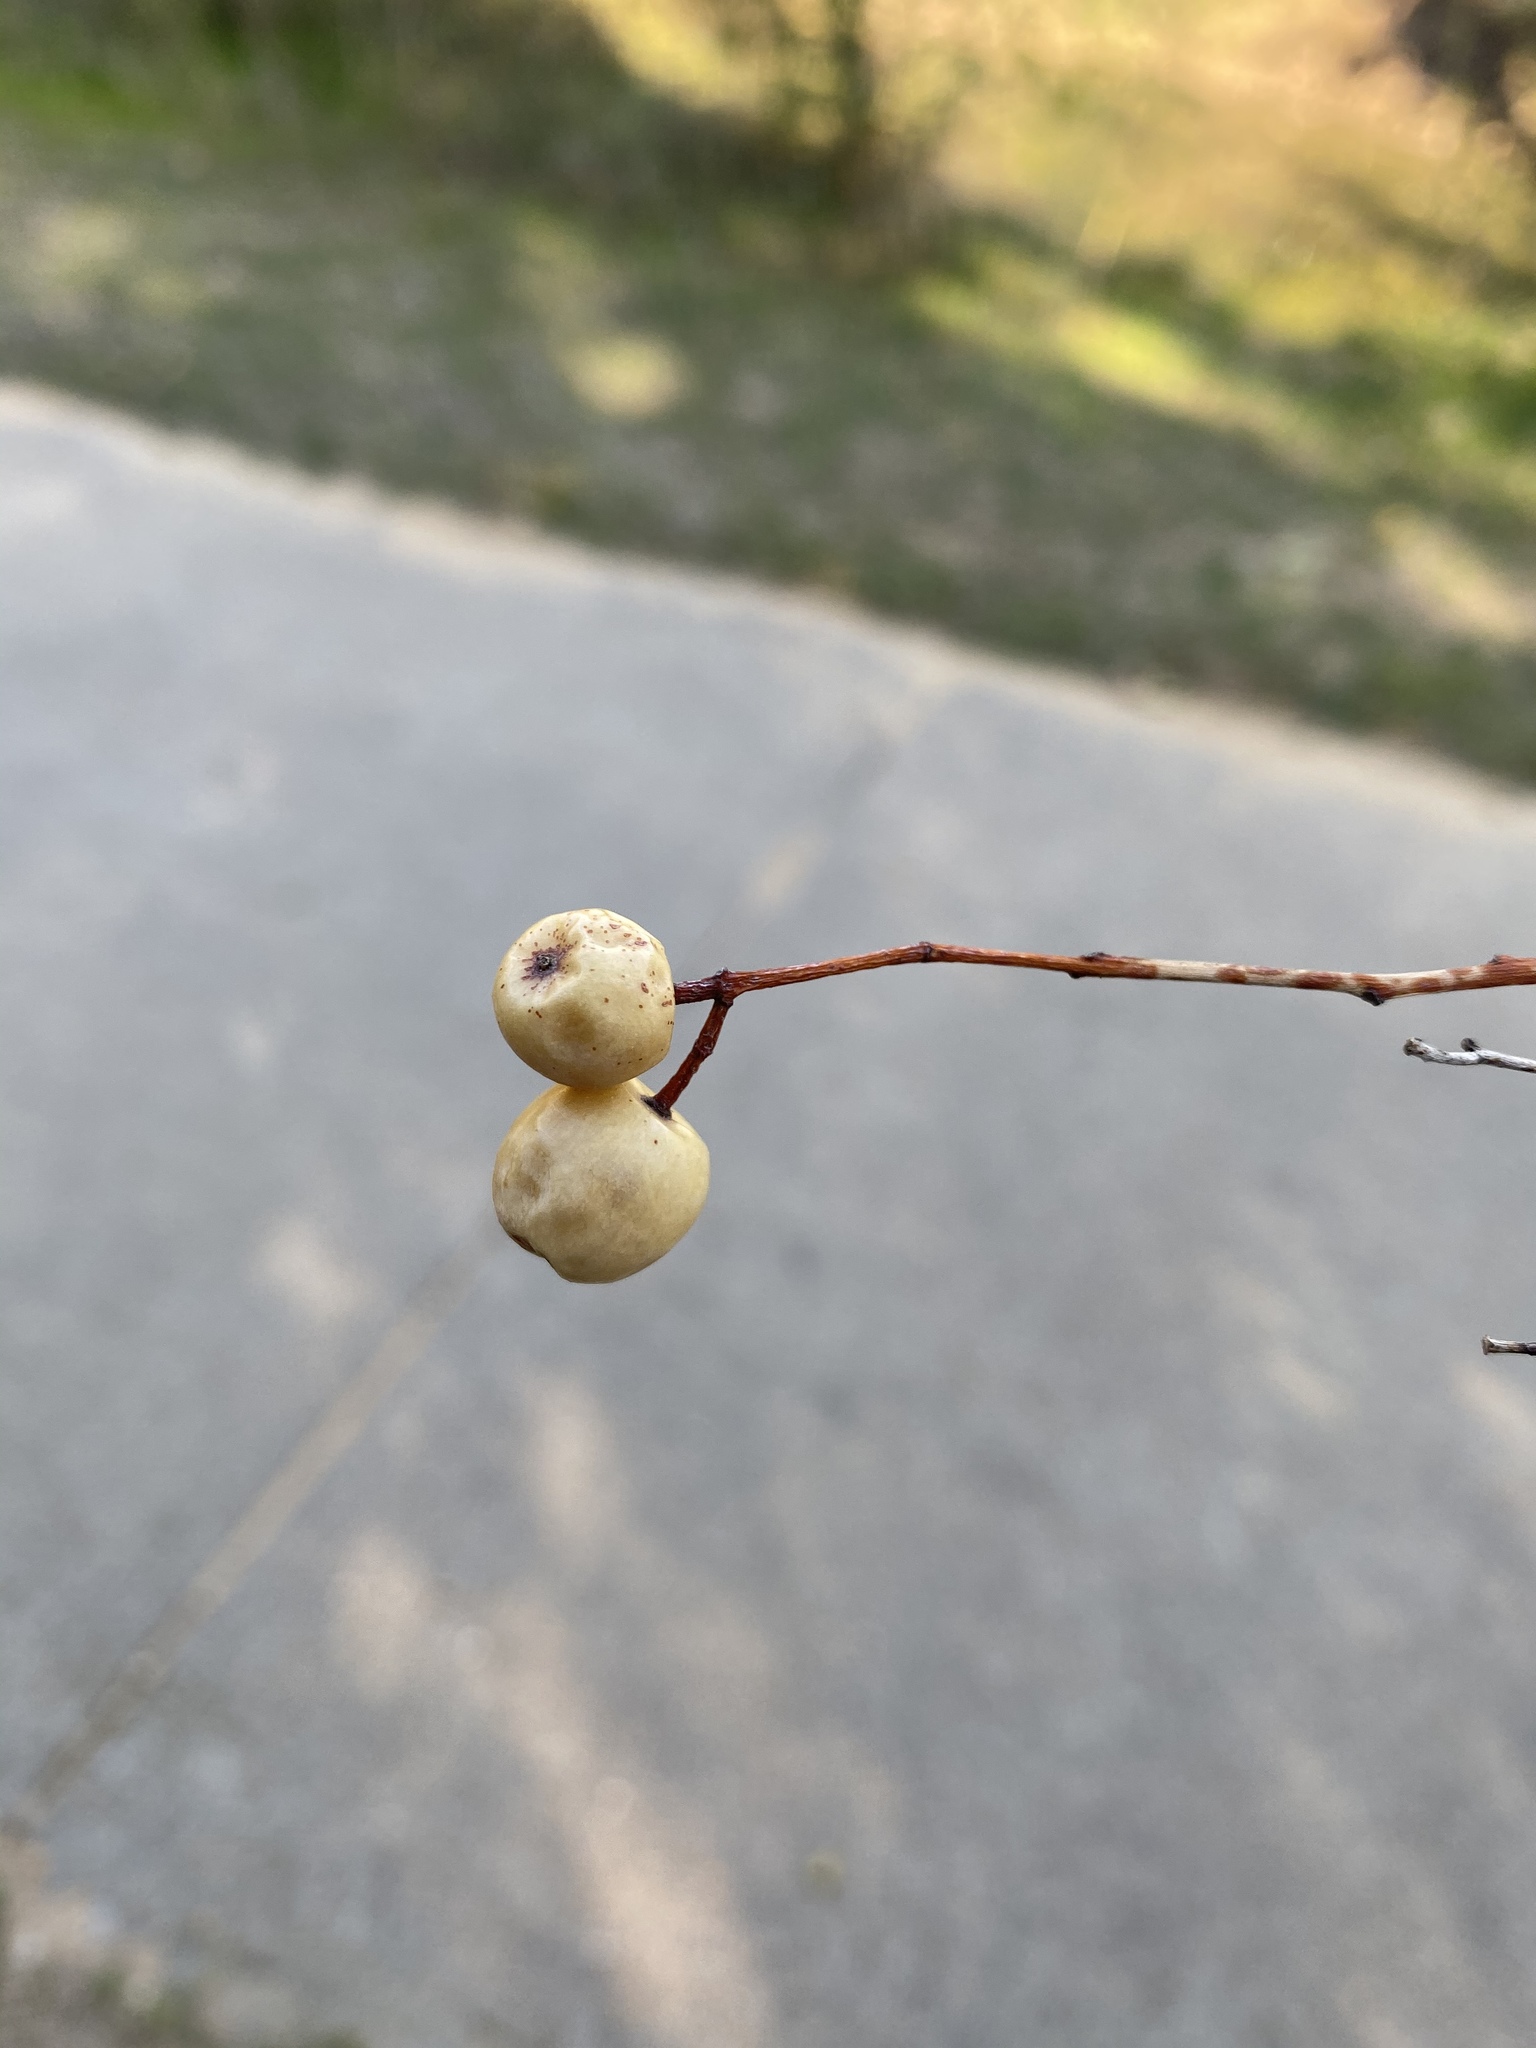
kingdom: Plantae
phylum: Tracheophyta
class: Magnoliopsida
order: Sapindales
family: Meliaceae
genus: Melia
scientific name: Melia azedarach
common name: Chinaberrytree
